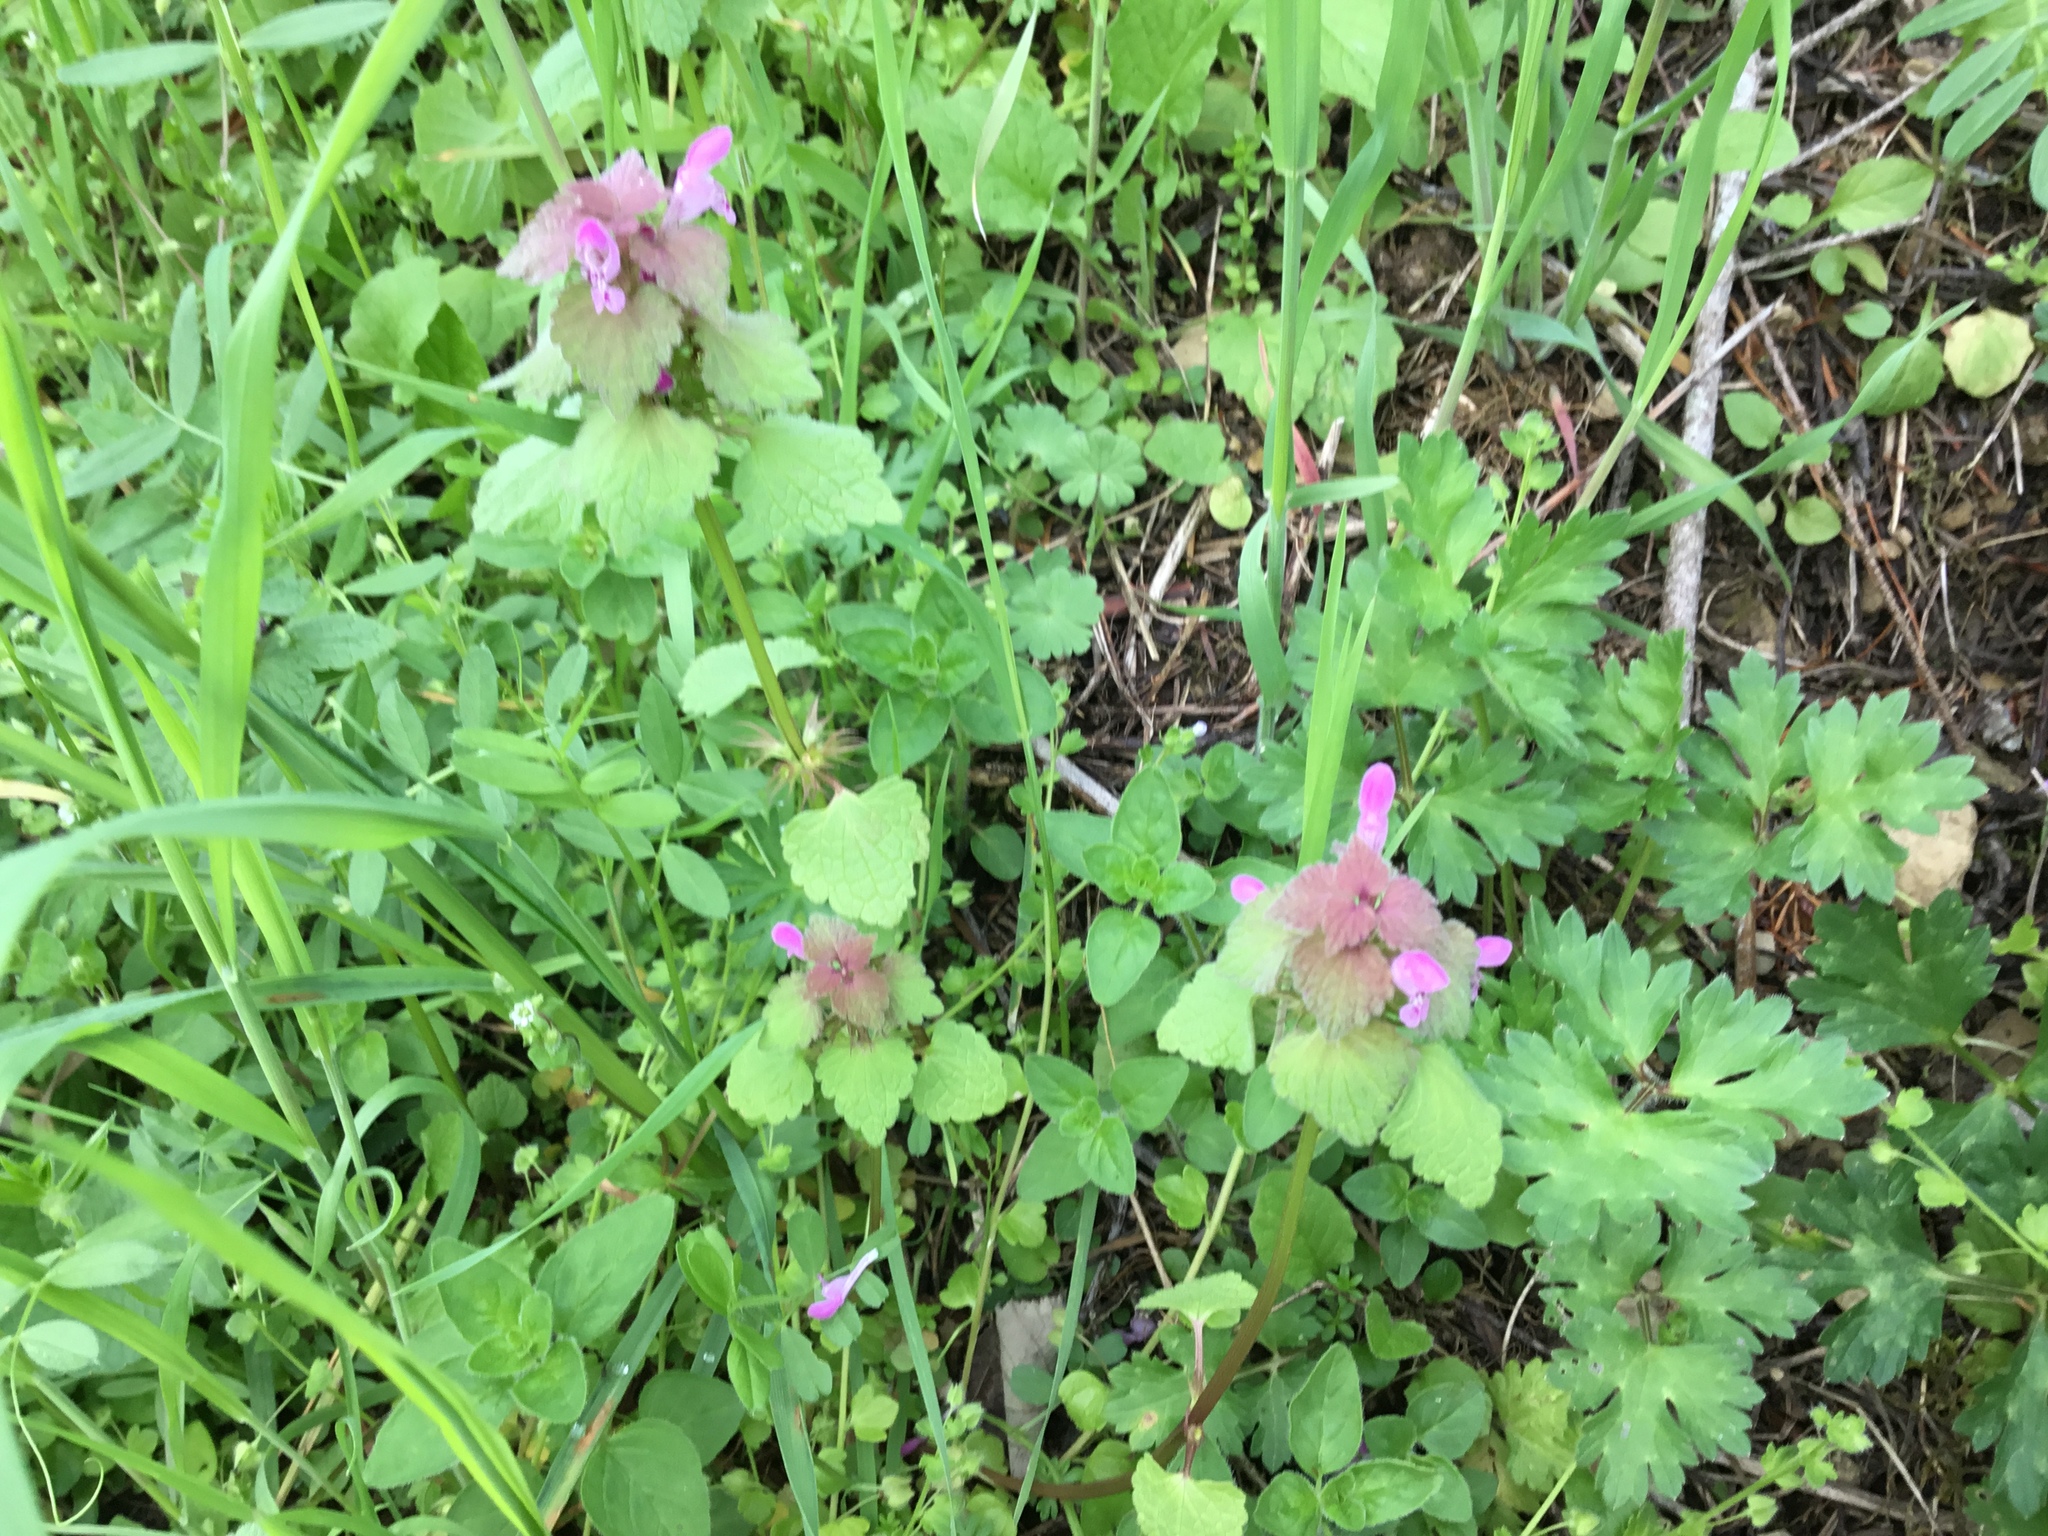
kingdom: Plantae
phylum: Tracheophyta
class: Magnoliopsida
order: Lamiales
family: Lamiaceae
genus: Lamium
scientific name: Lamium purpureum
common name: Red dead-nettle
